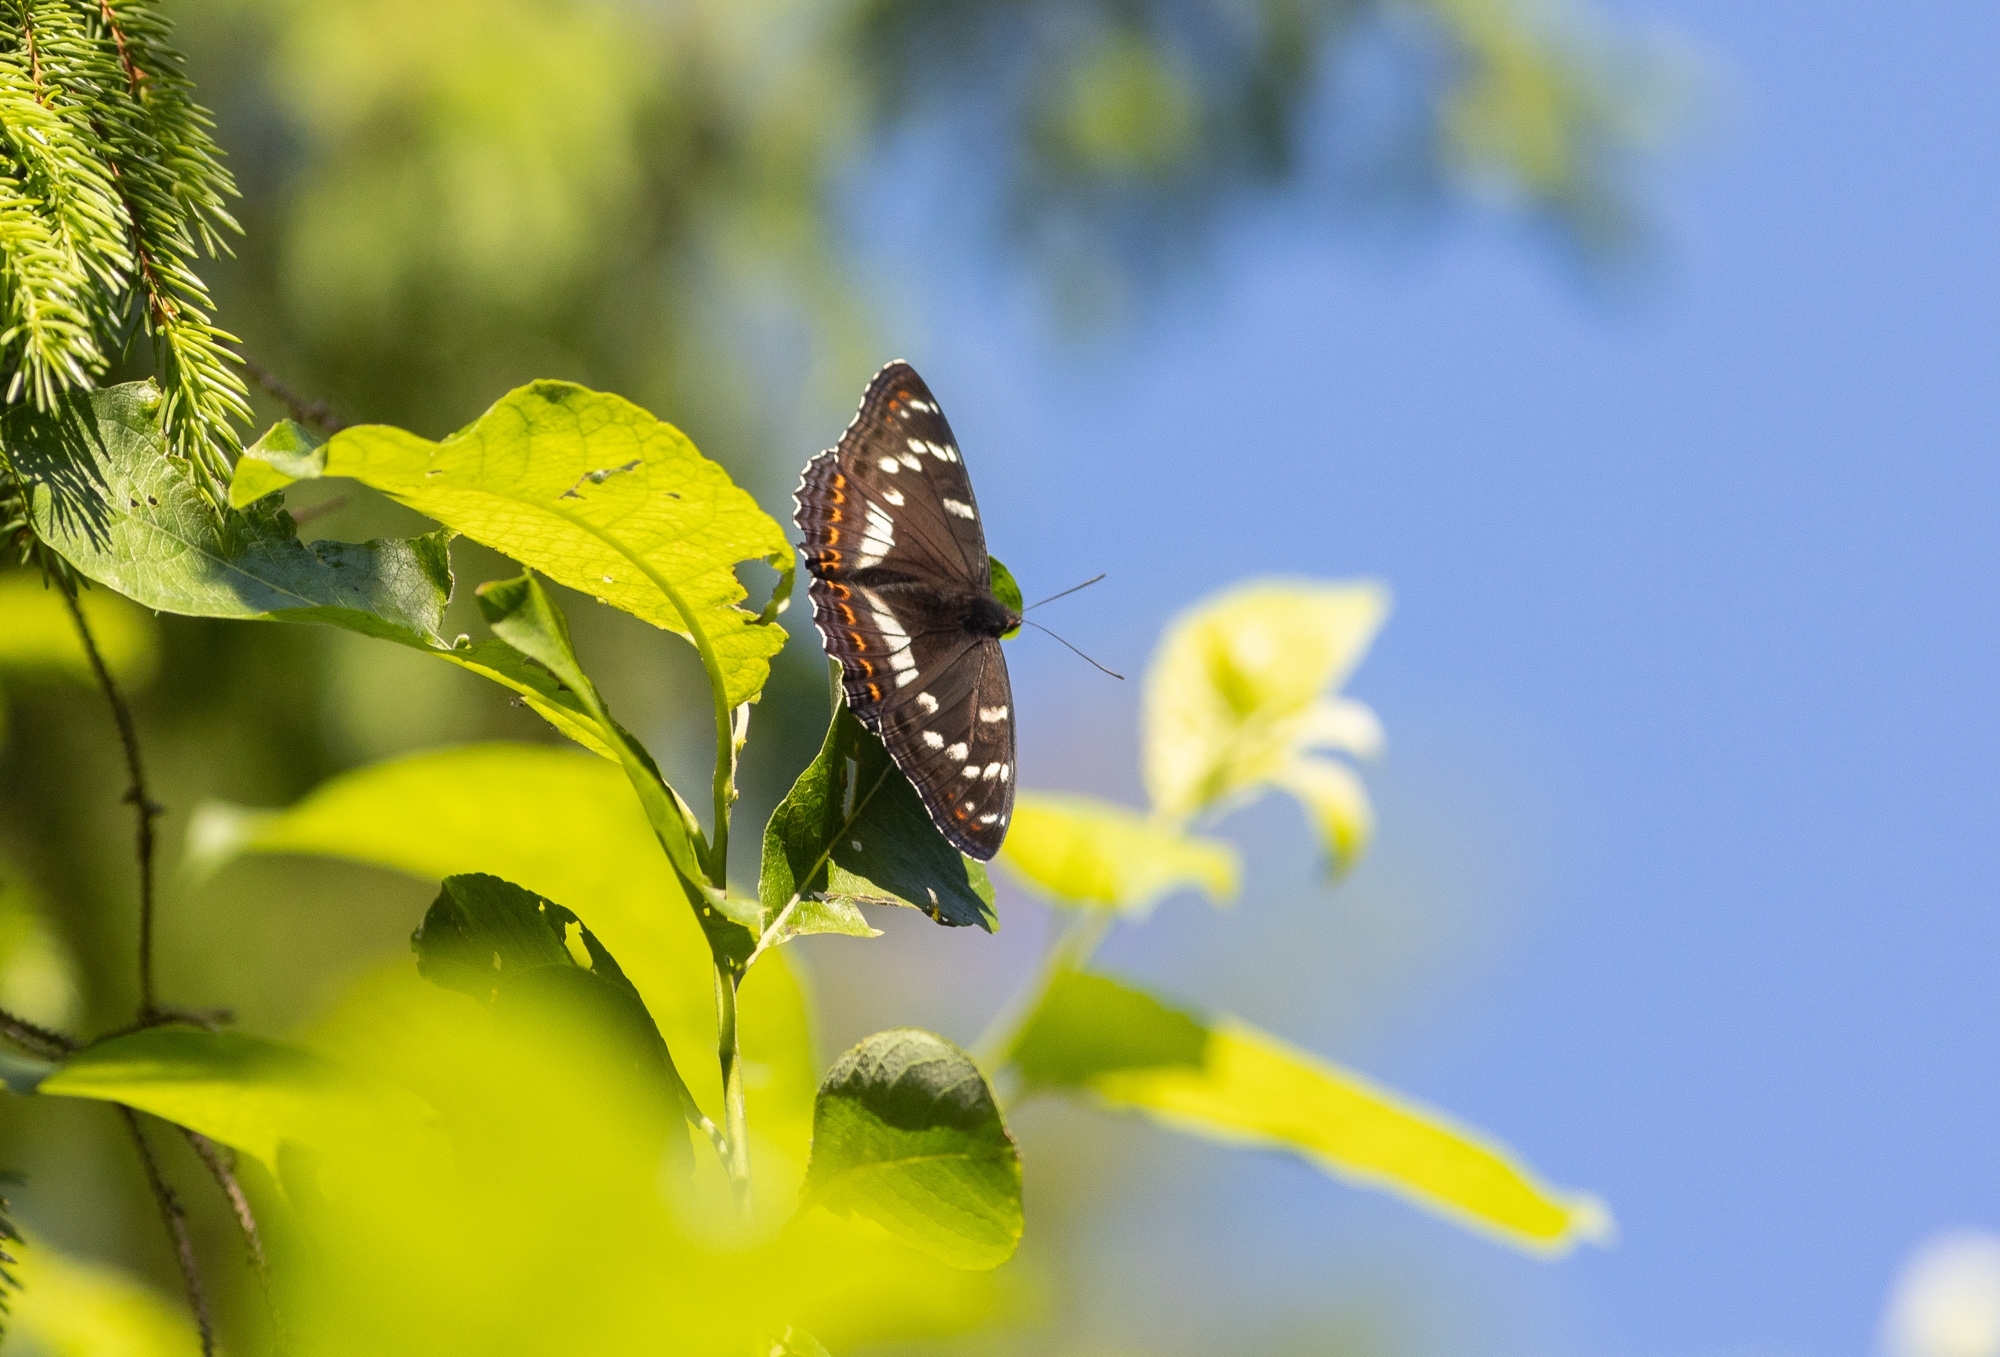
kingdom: Animalia
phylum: Arthropoda
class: Insecta
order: Lepidoptera
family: Nymphalidae
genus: Limenitis
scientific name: Limenitis populi
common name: Poplar admiral
